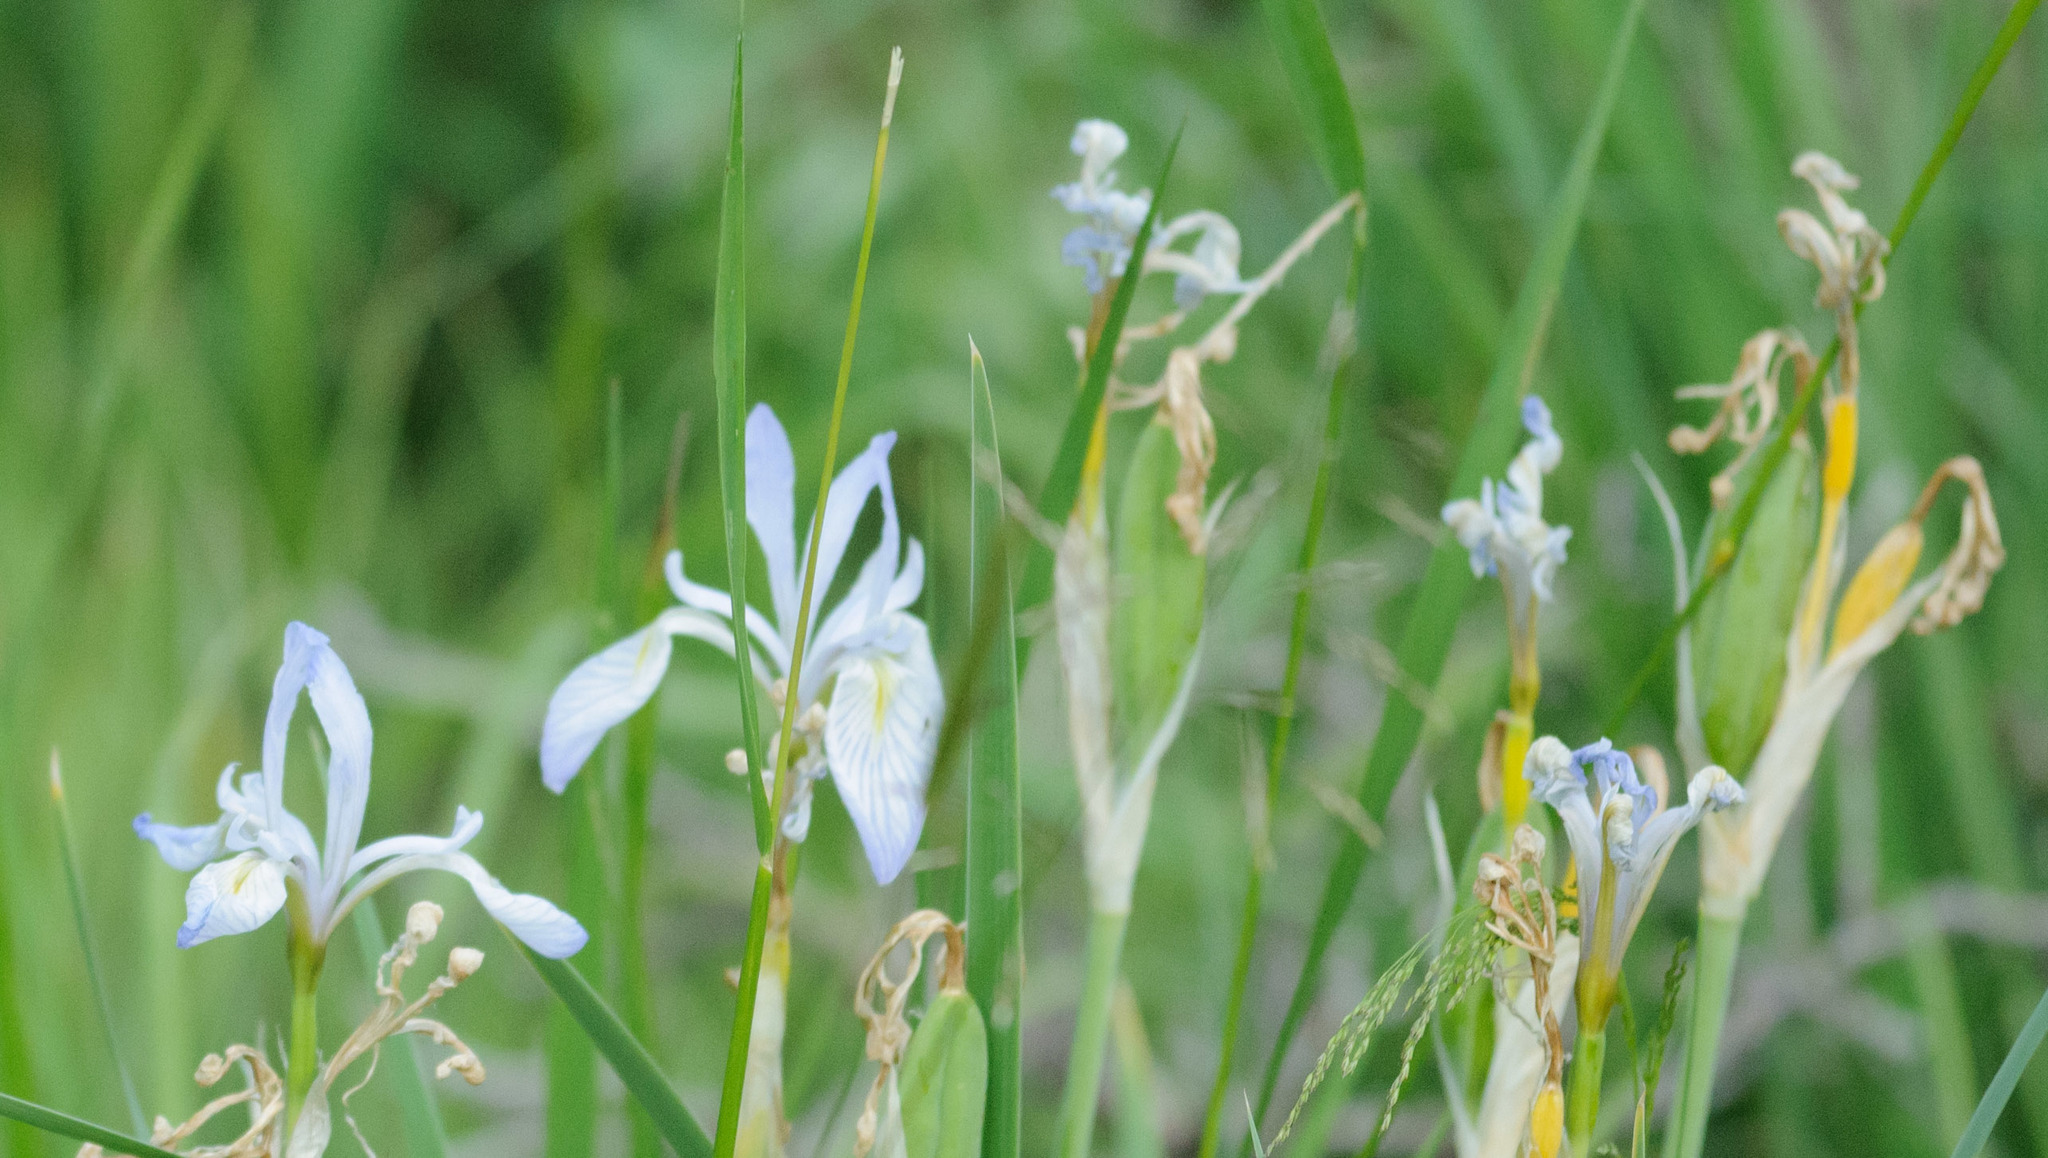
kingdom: Plantae
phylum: Tracheophyta
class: Liliopsida
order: Asparagales
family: Iridaceae
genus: Iris
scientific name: Iris missouriensis
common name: Rocky mountain iris
